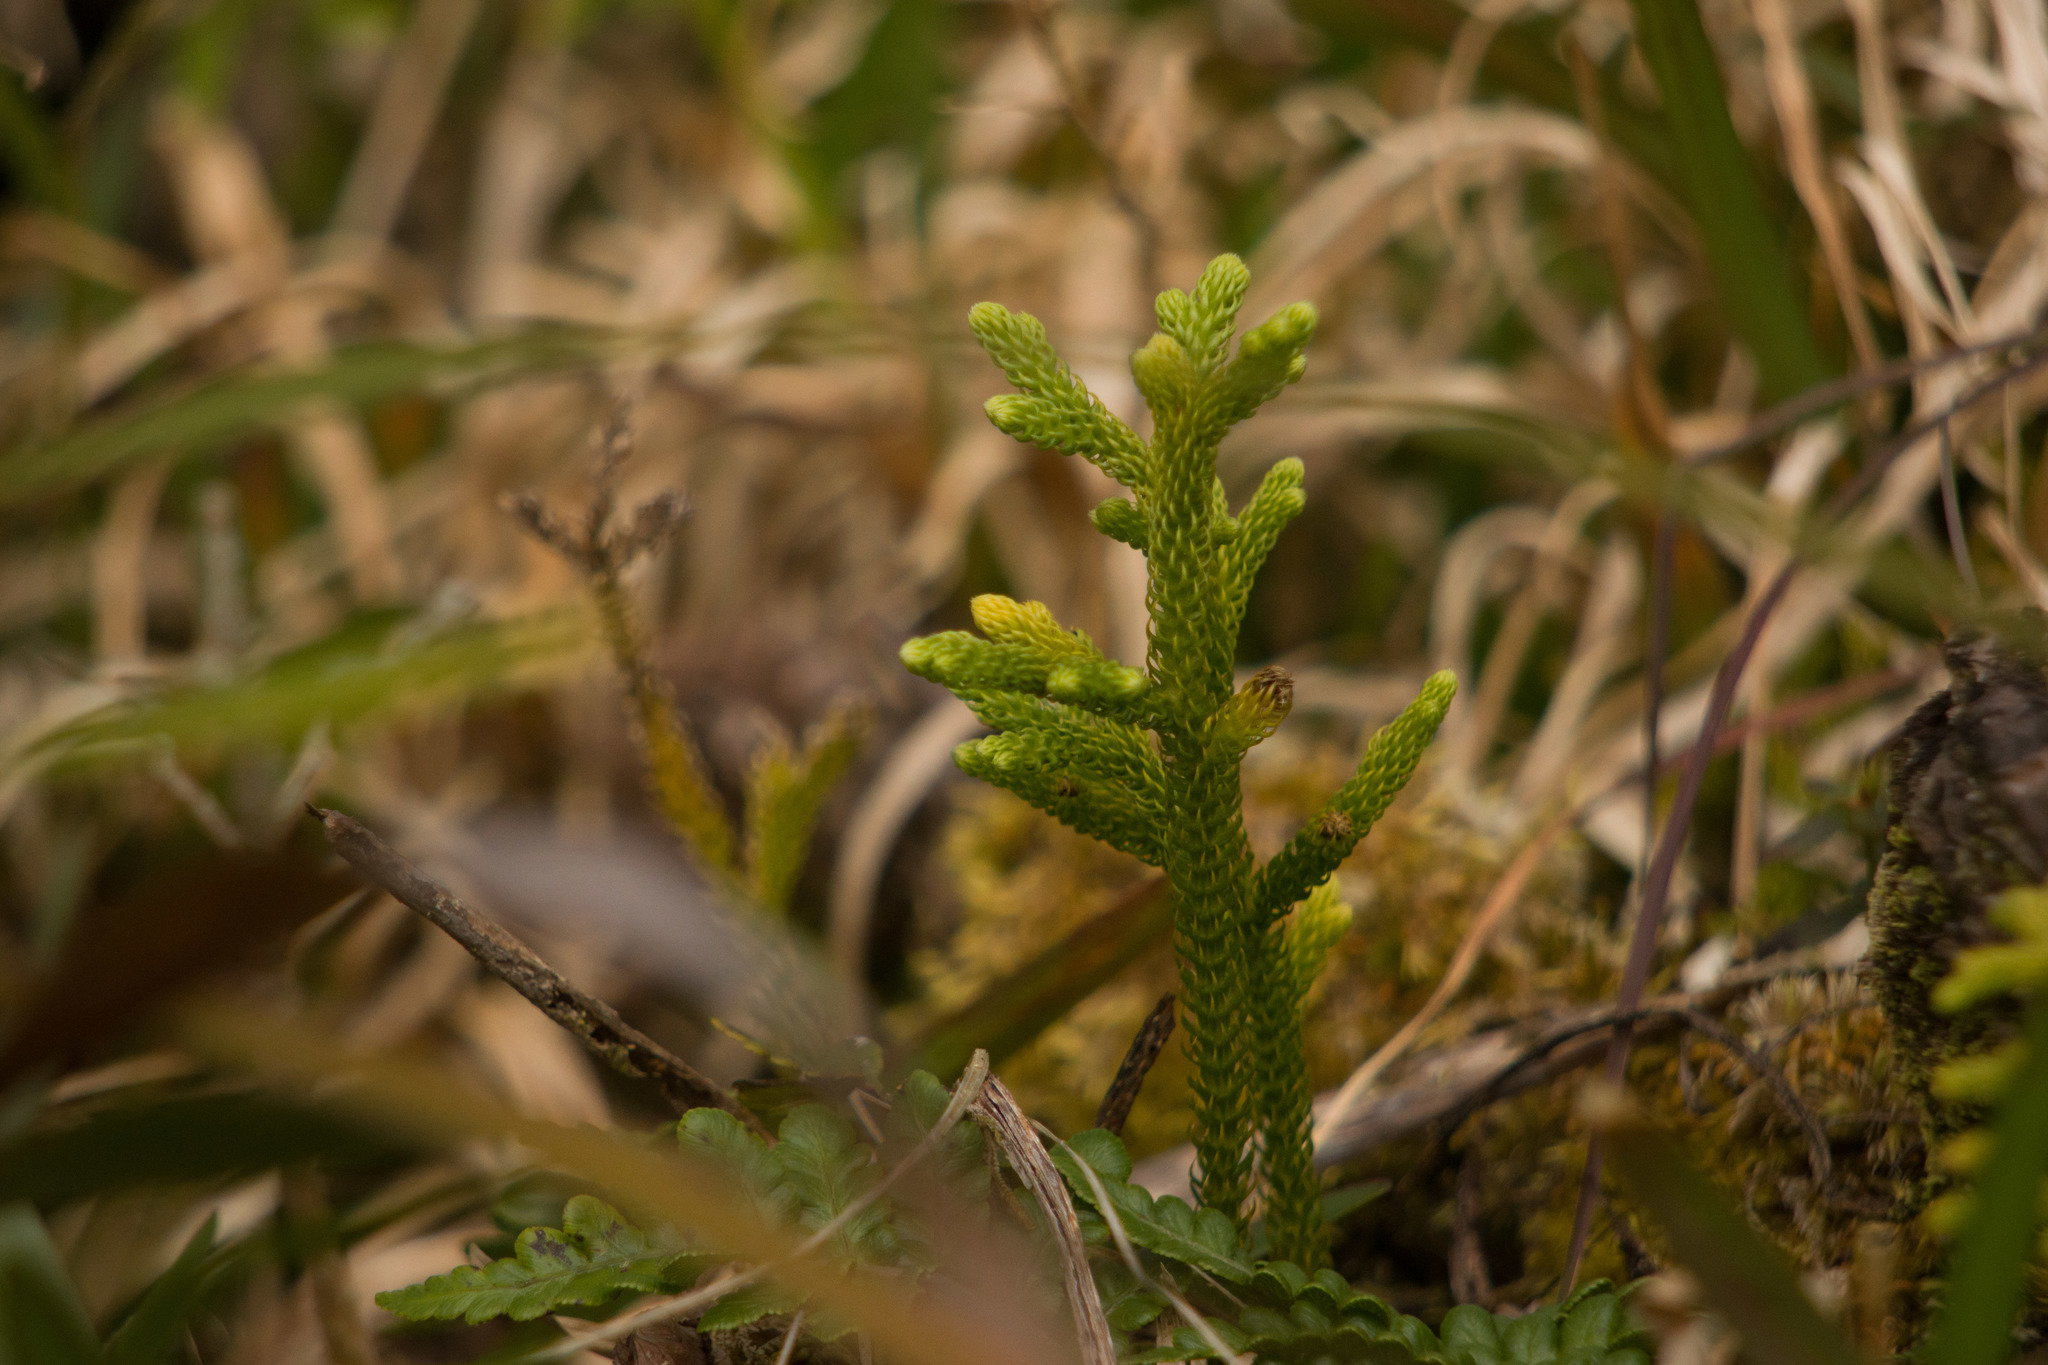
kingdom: Plantae
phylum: Tracheophyta
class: Lycopodiopsida
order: Lycopodiales
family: Lycopodiaceae
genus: Palhinhaea
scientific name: Palhinhaea cernua
